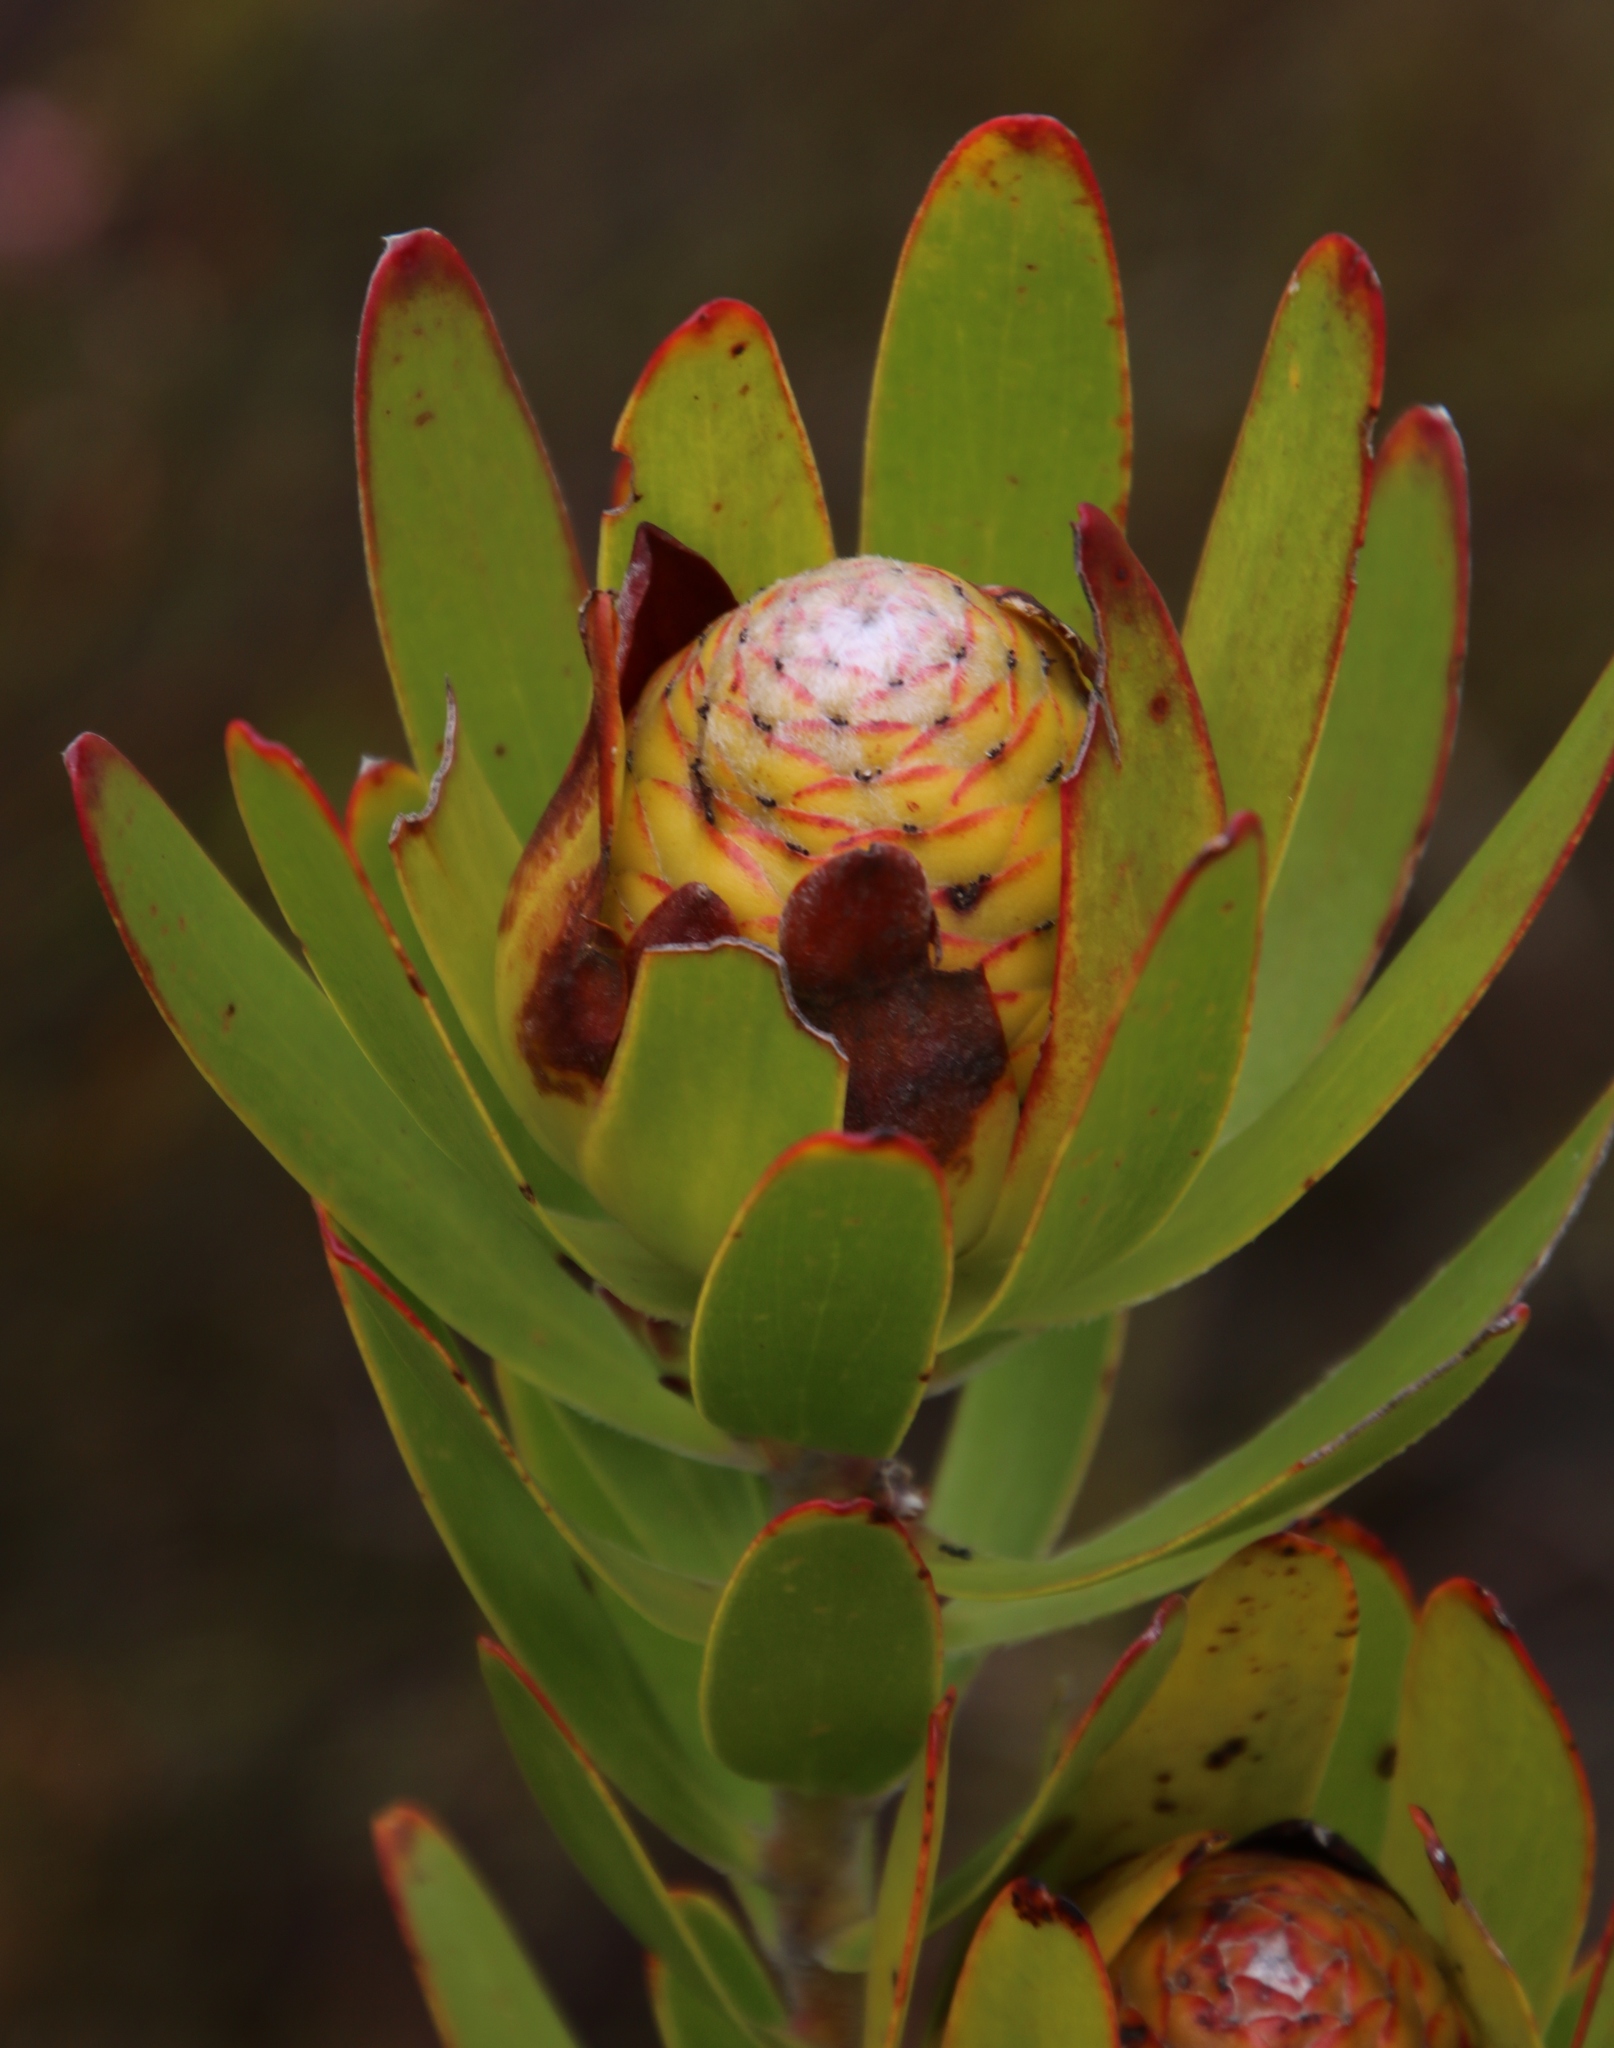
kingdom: Plantae
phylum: Tracheophyta
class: Magnoliopsida
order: Proteales
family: Proteaceae
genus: Leucadendron
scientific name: Leucadendron
